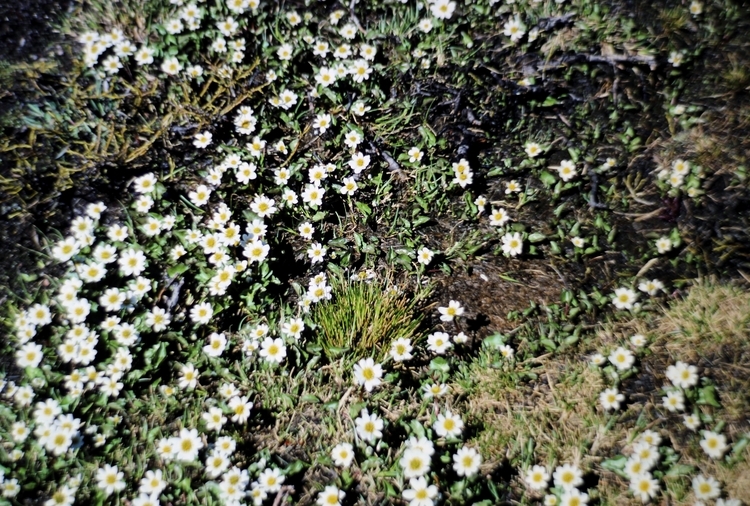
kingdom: Plantae
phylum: Tracheophyta
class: Magnoliopsida
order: Ranunculales
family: Ranunculaceae
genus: Caltha
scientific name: Caltha leptosepala
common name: Elkslip
